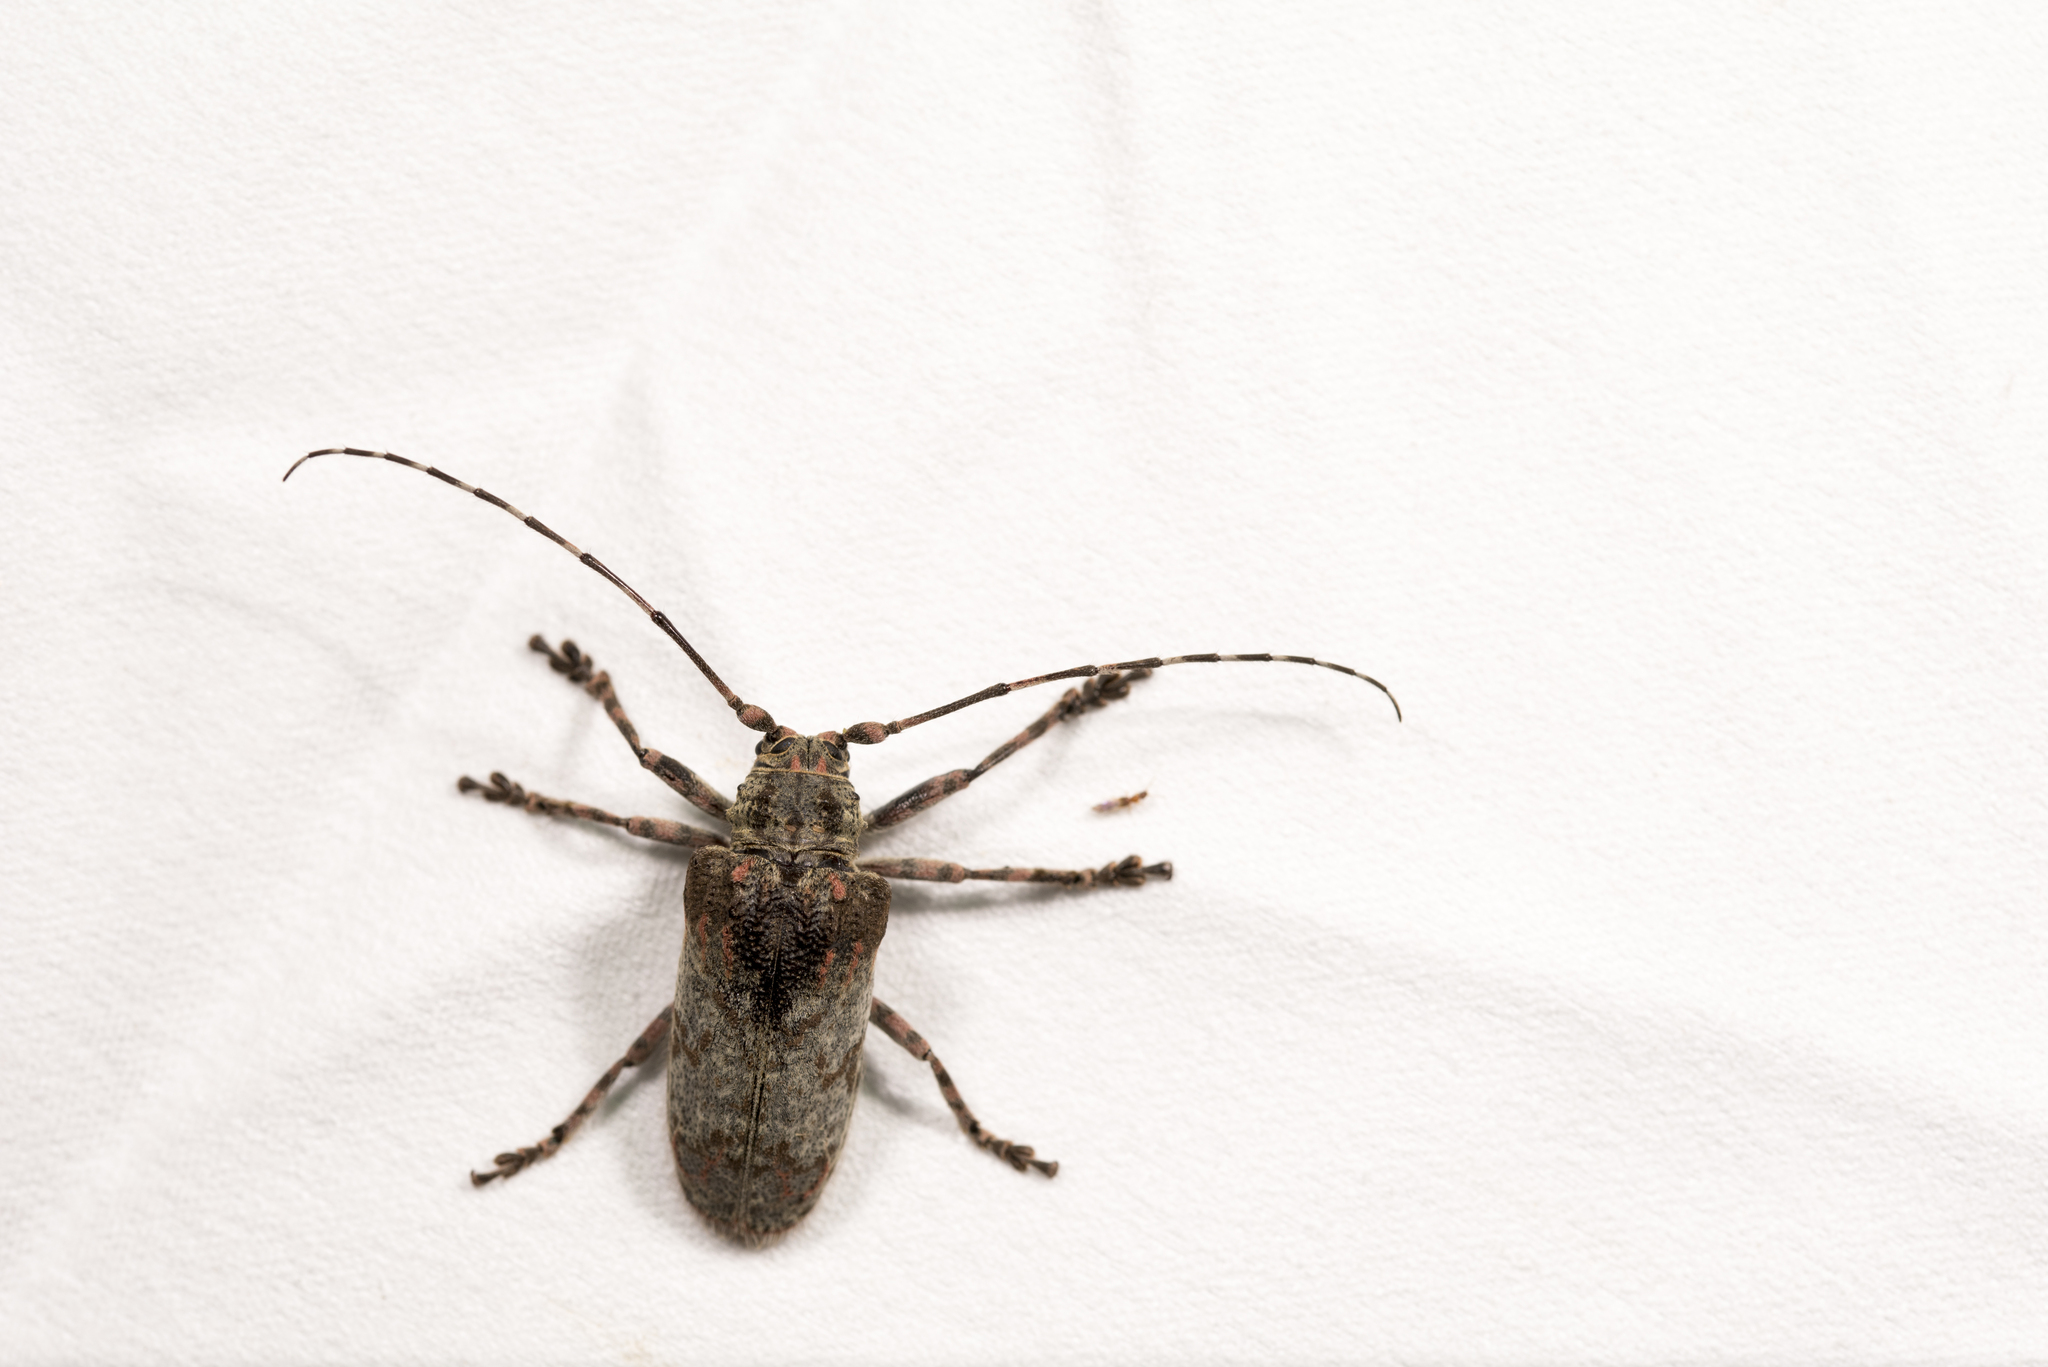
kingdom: Animalia
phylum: Arthropoda
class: Insecta
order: Coleoptera
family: Cerambycidae
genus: Moechotypa
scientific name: Moechotypa formosana
